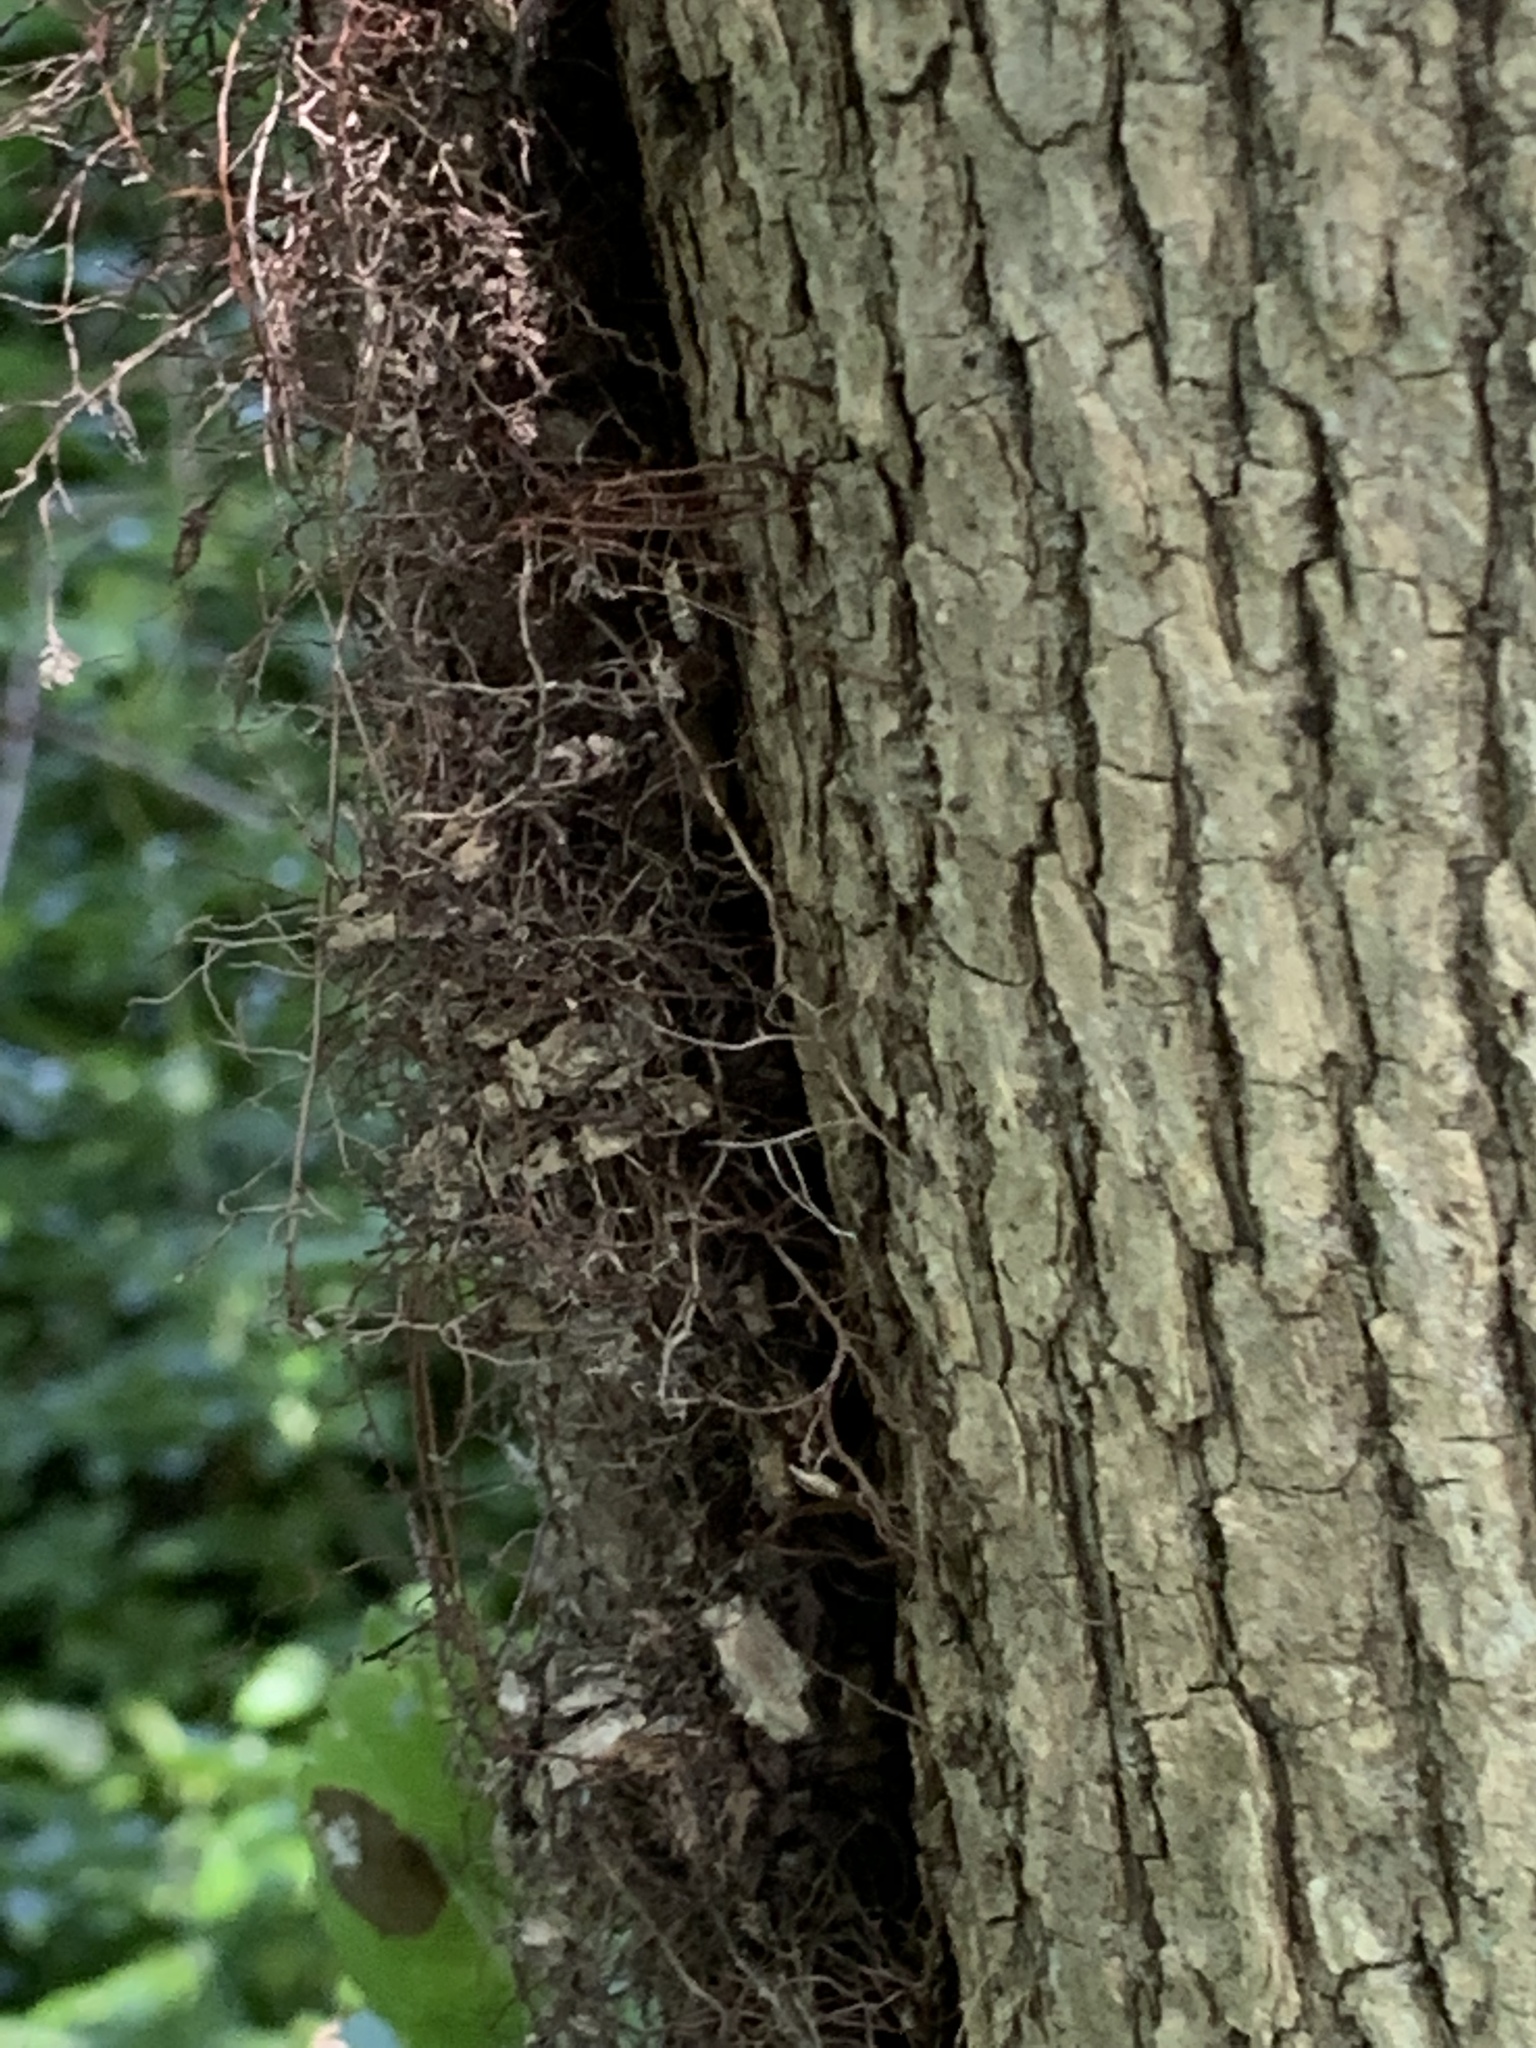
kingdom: Plantae
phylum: Tracheophyta
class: Magnoliopsida
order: Sapindales
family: Anacardiaceae
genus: Toxicodendron
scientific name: Toxicodendron radicans
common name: Poison ivy
